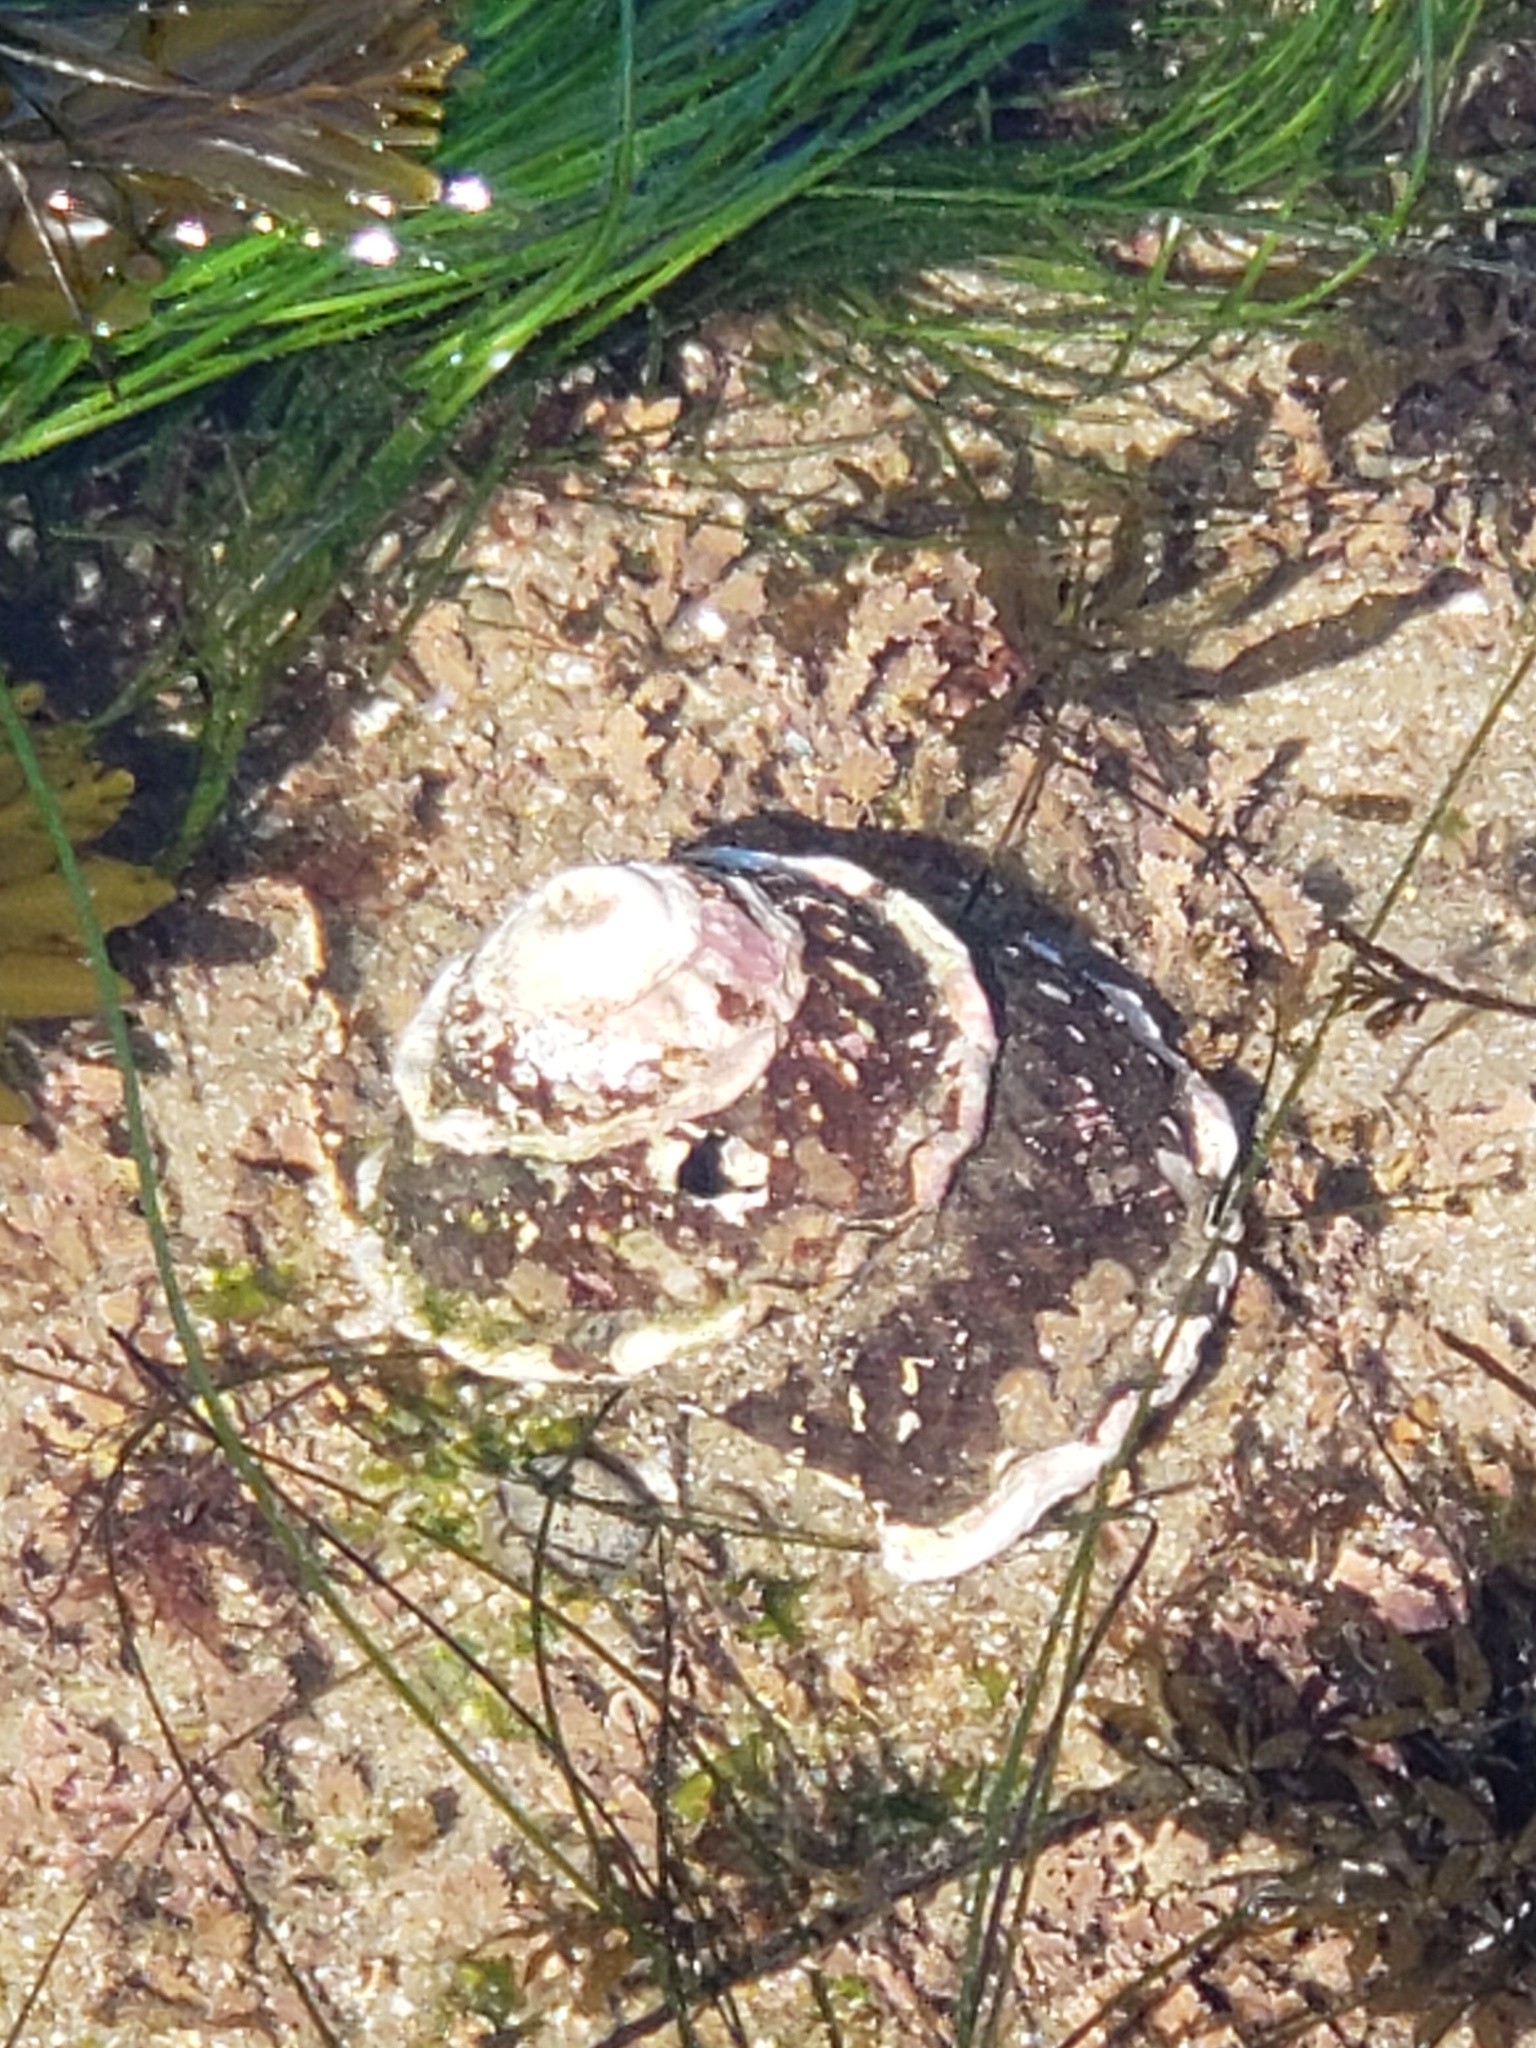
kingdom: Animalia
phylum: Mollusca
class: Gastropoda
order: Trochida
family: Turbinidae
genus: Megastraea
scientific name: Megastraea undosa
